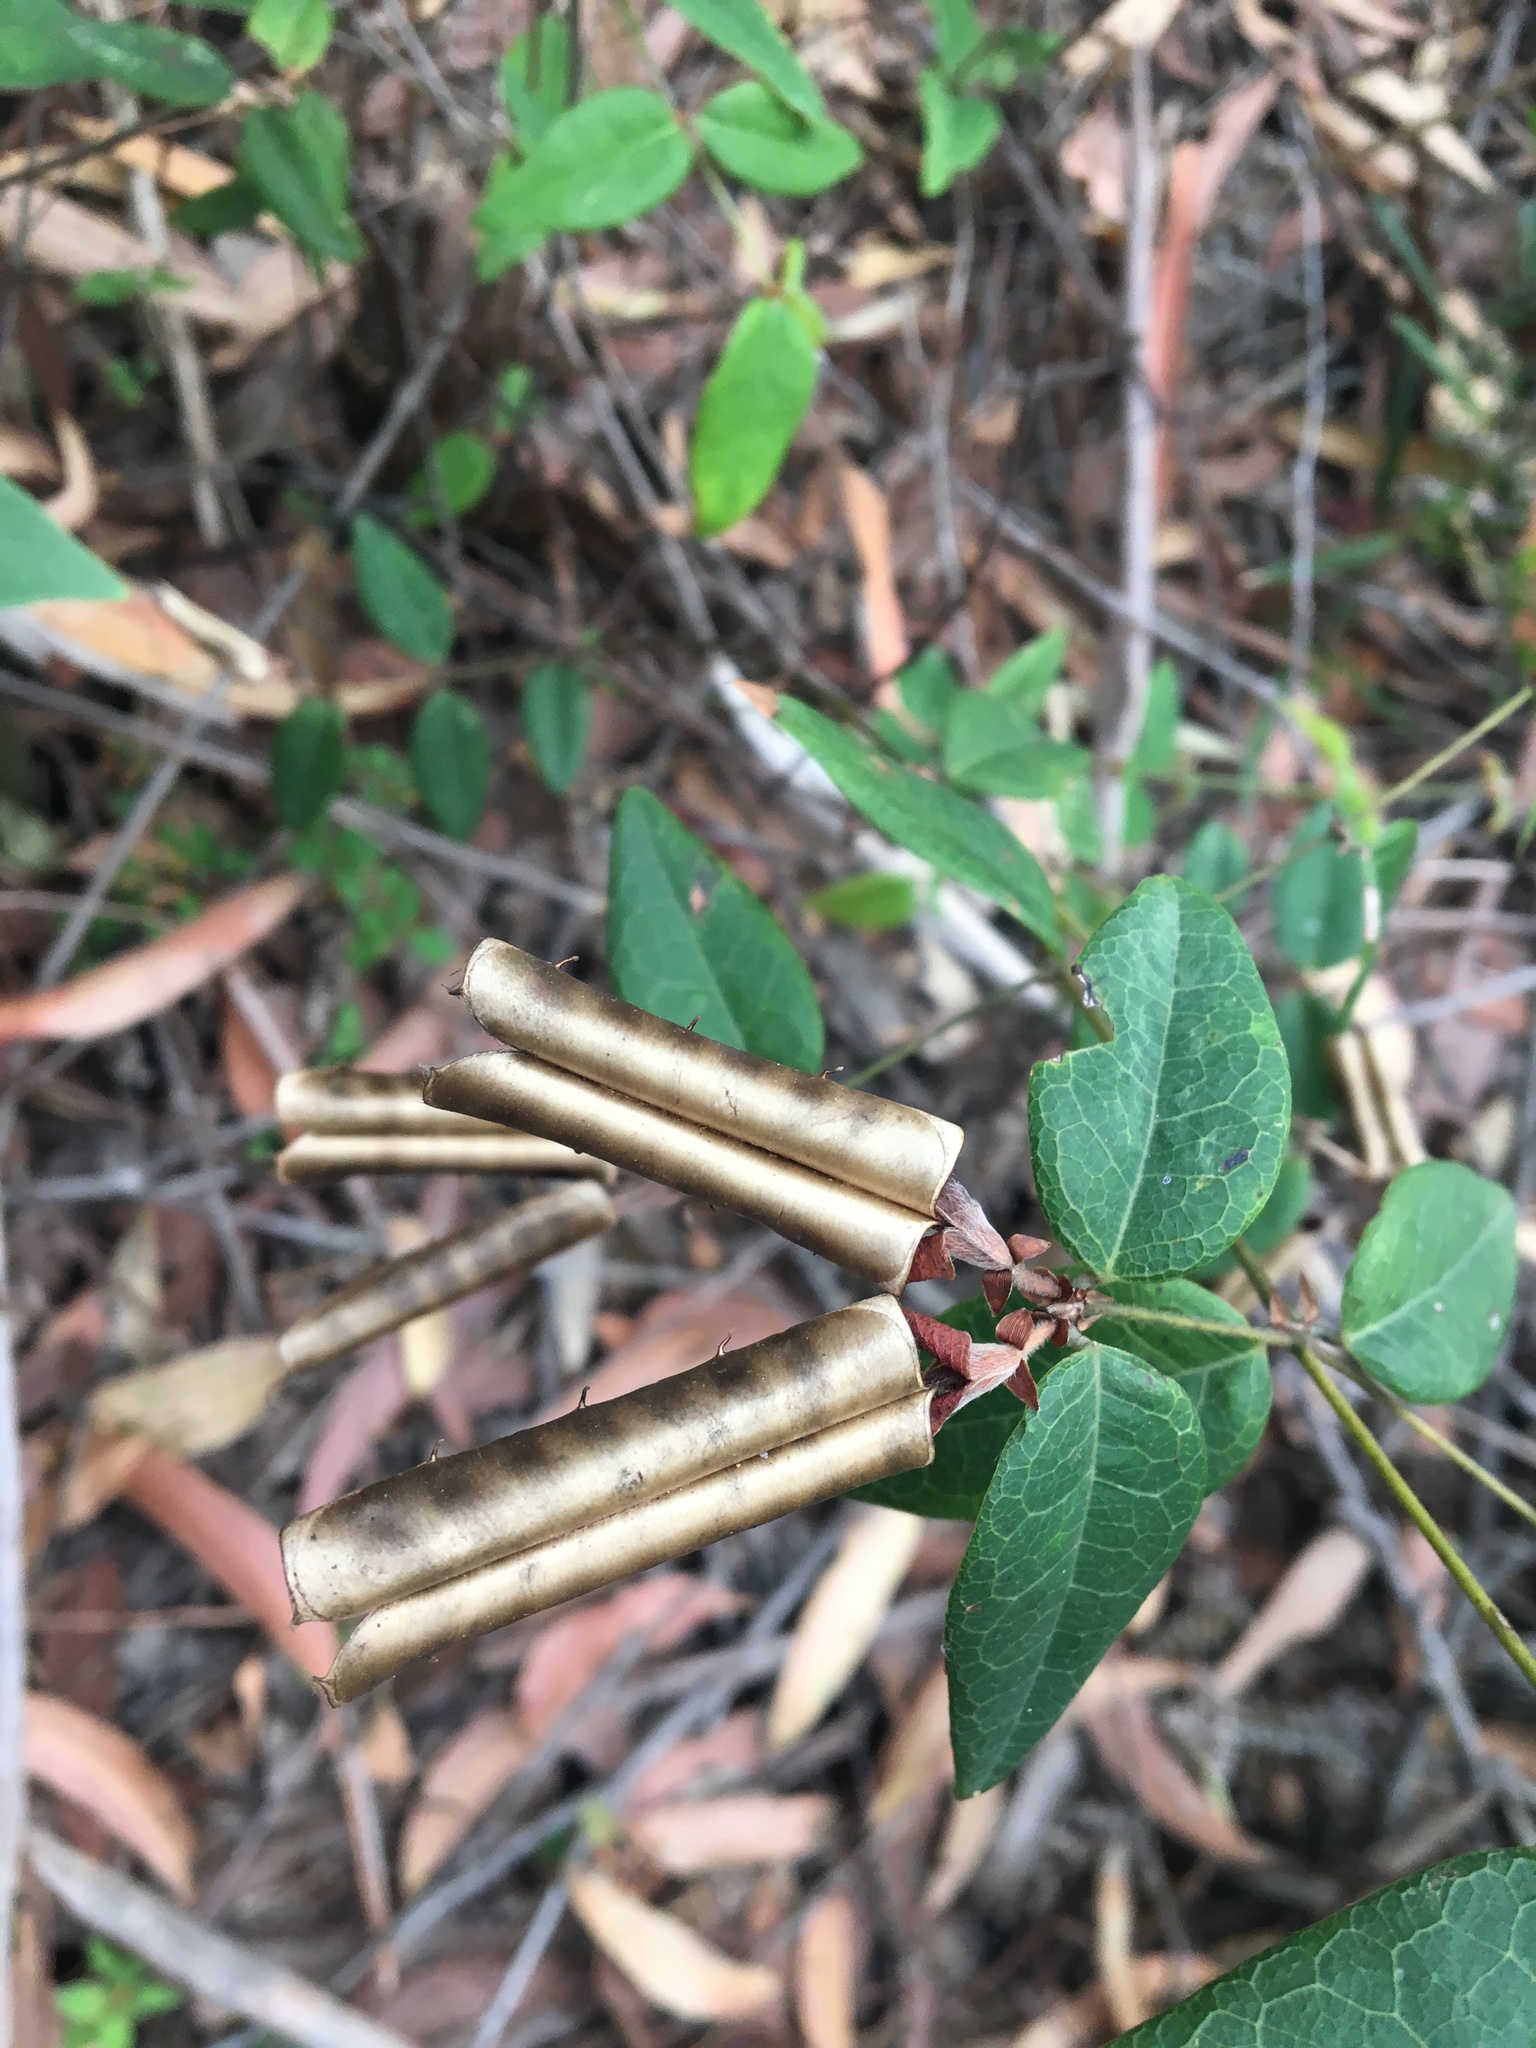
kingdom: Plantae
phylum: Tracheophyta
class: Magnoliopsida
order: Fabales
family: Fabaceae
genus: Platylobium
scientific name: Platylobium formosum
